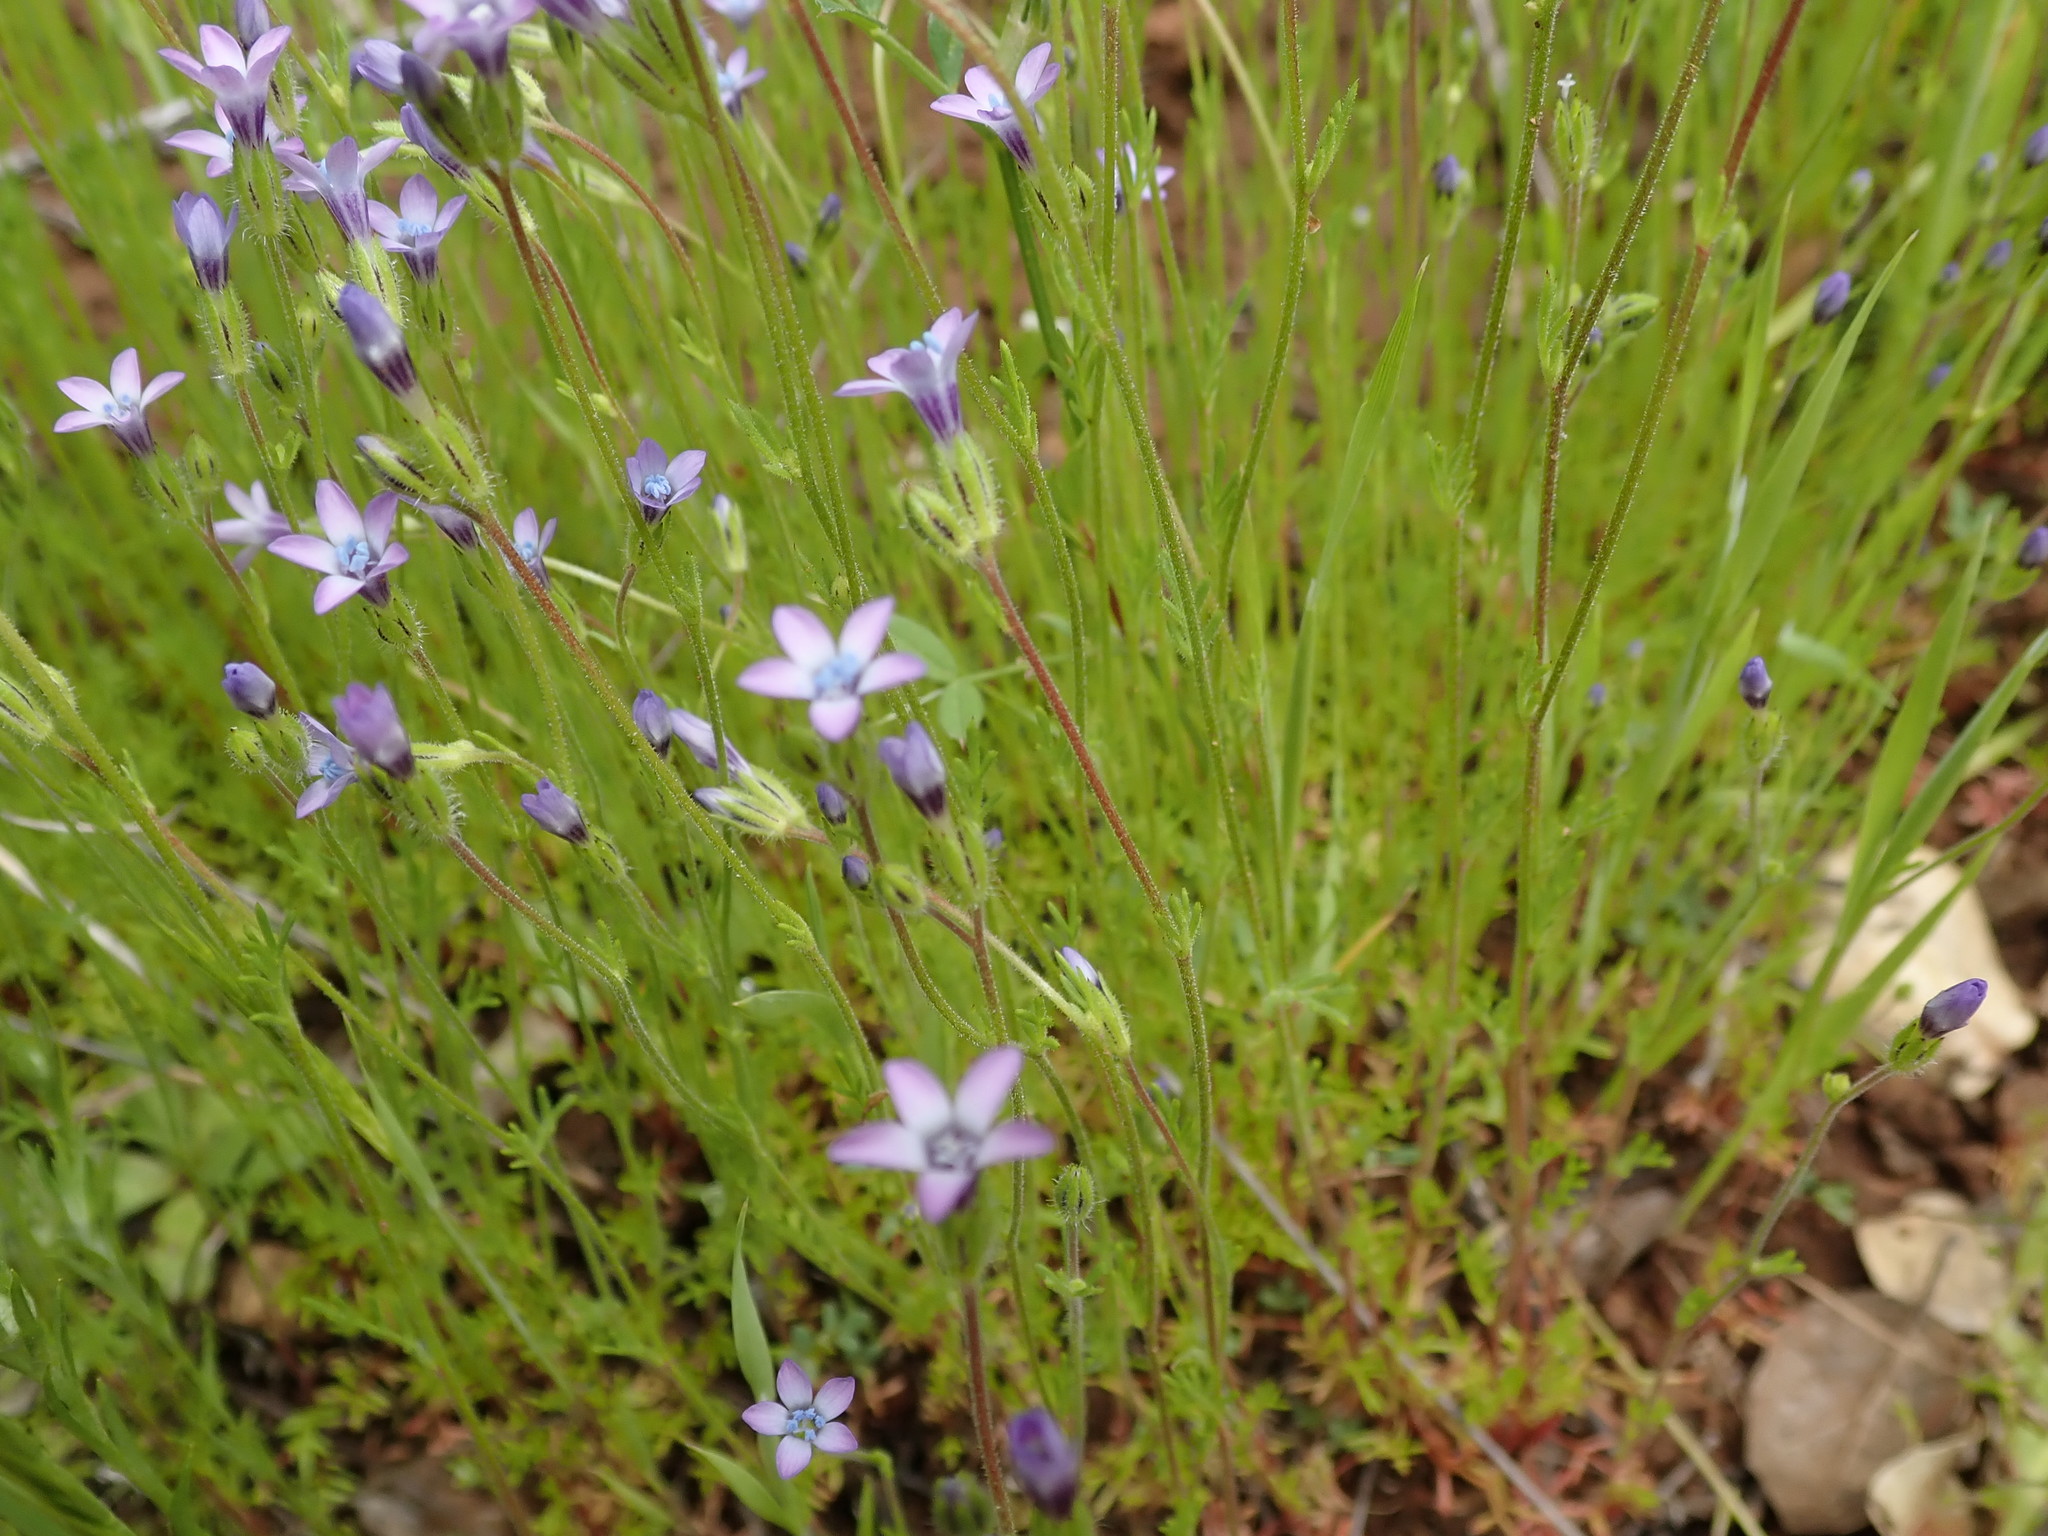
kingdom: Plantae
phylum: Tracheophyta
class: Magnoliopsida
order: Ericales
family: Polemoniaceae
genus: Gilia
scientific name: Gilia clivorum
